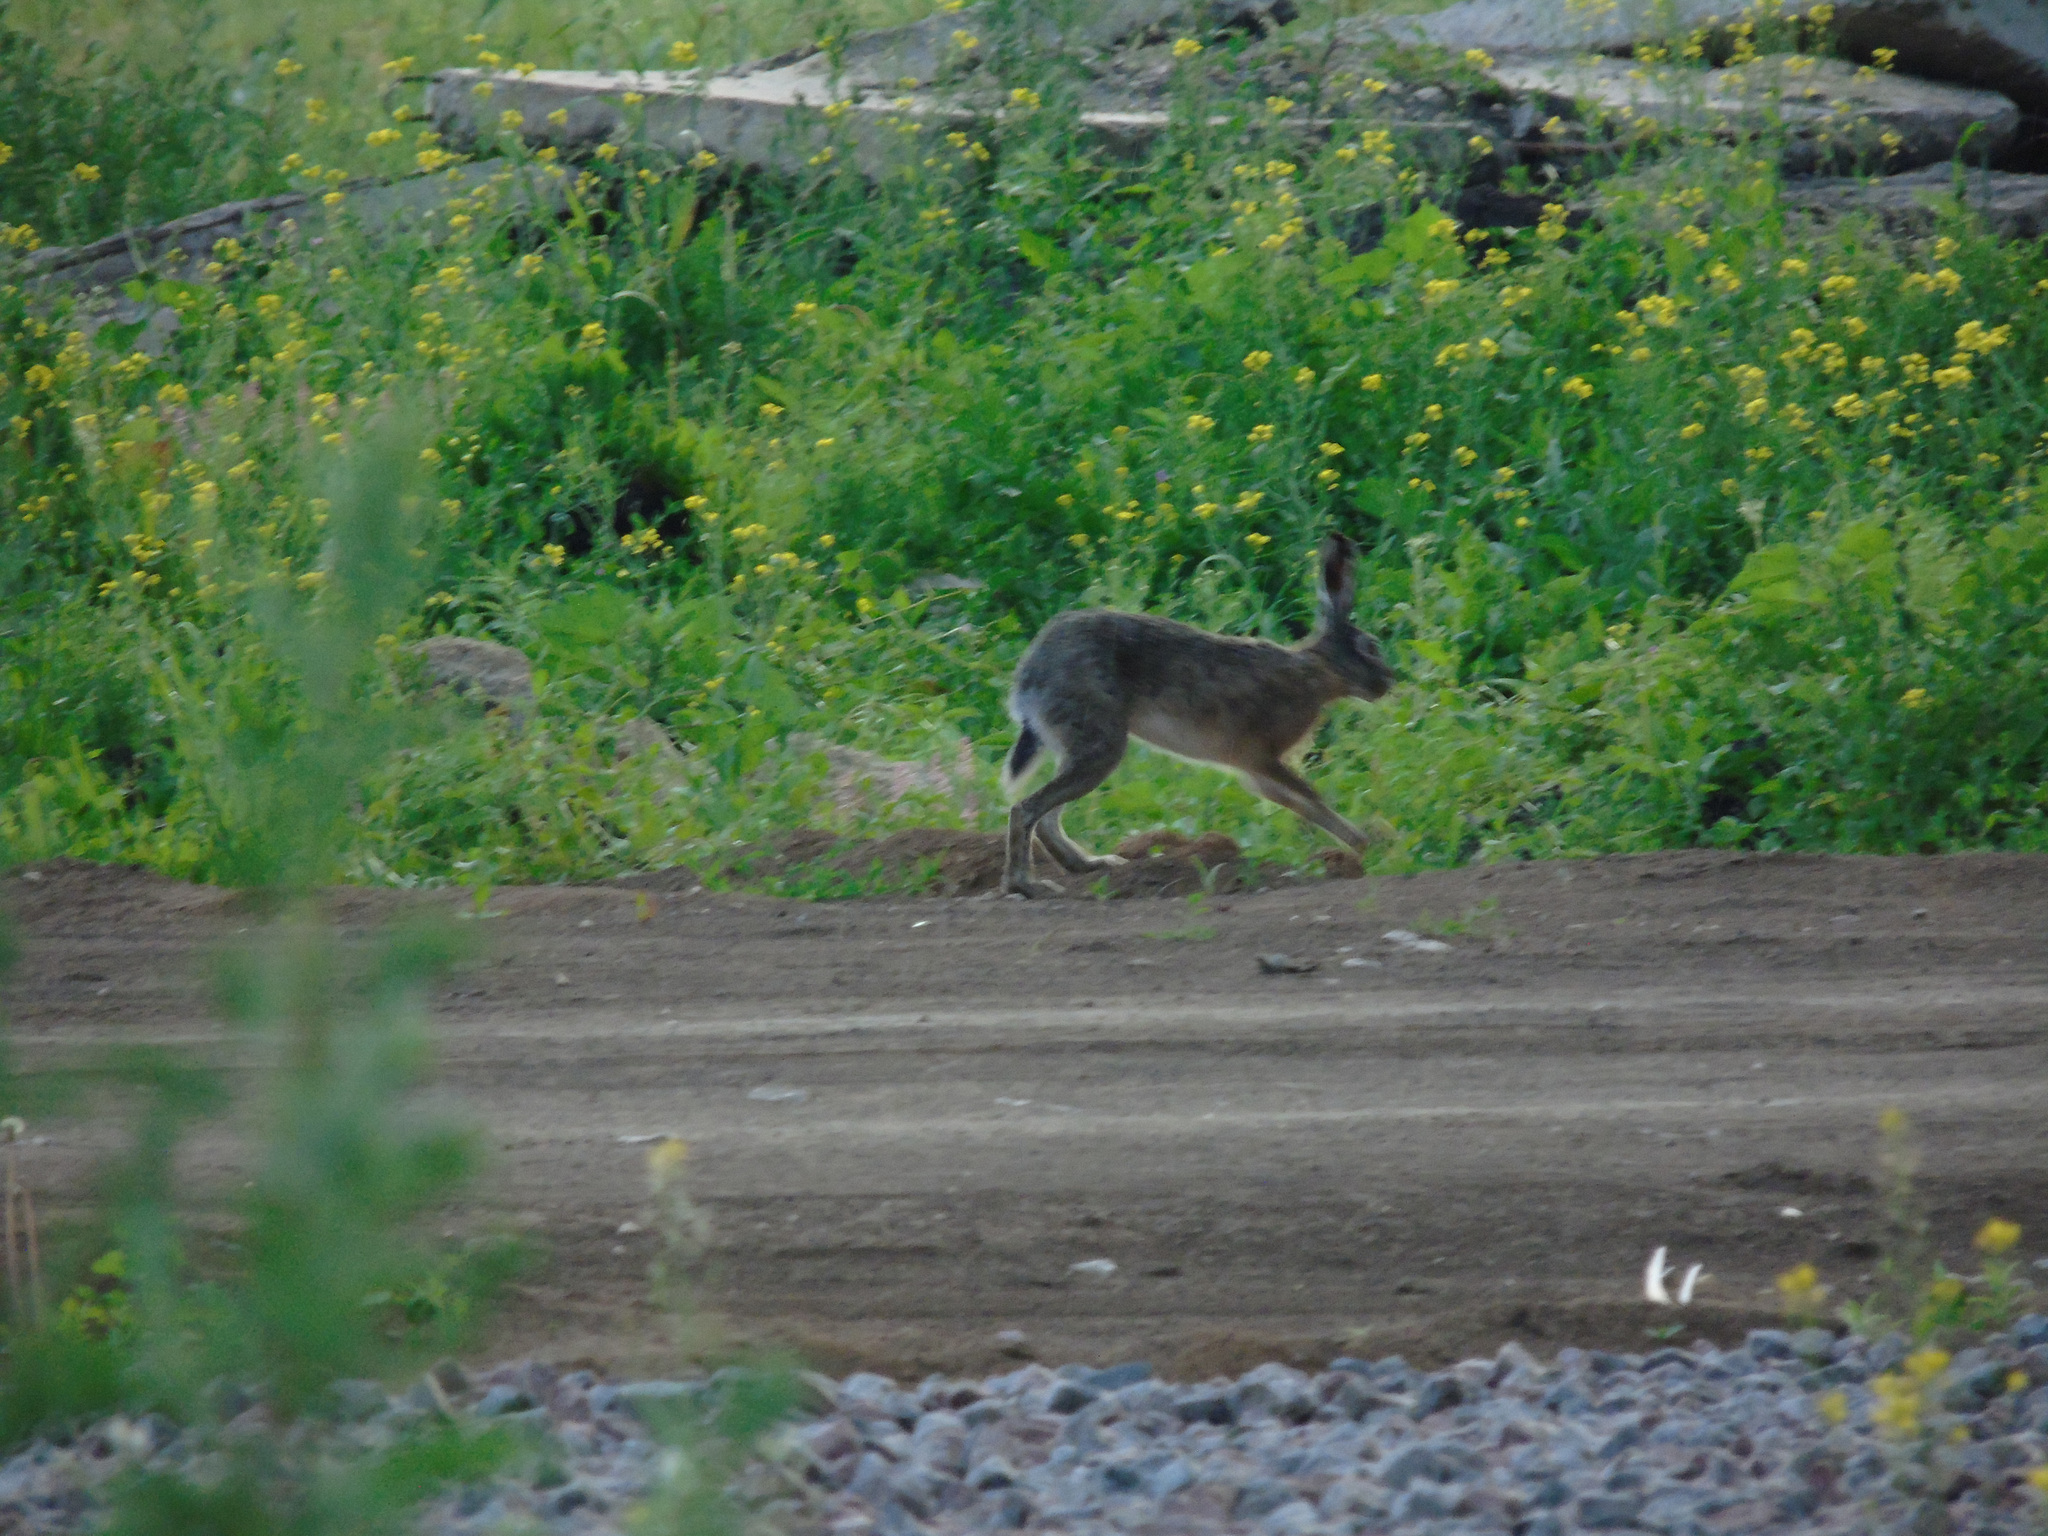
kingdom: Animalia
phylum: Chordata
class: Mammalia
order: Lagomorpha
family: Leporidae
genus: Lepus
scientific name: Lepus europaeus
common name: European hare
